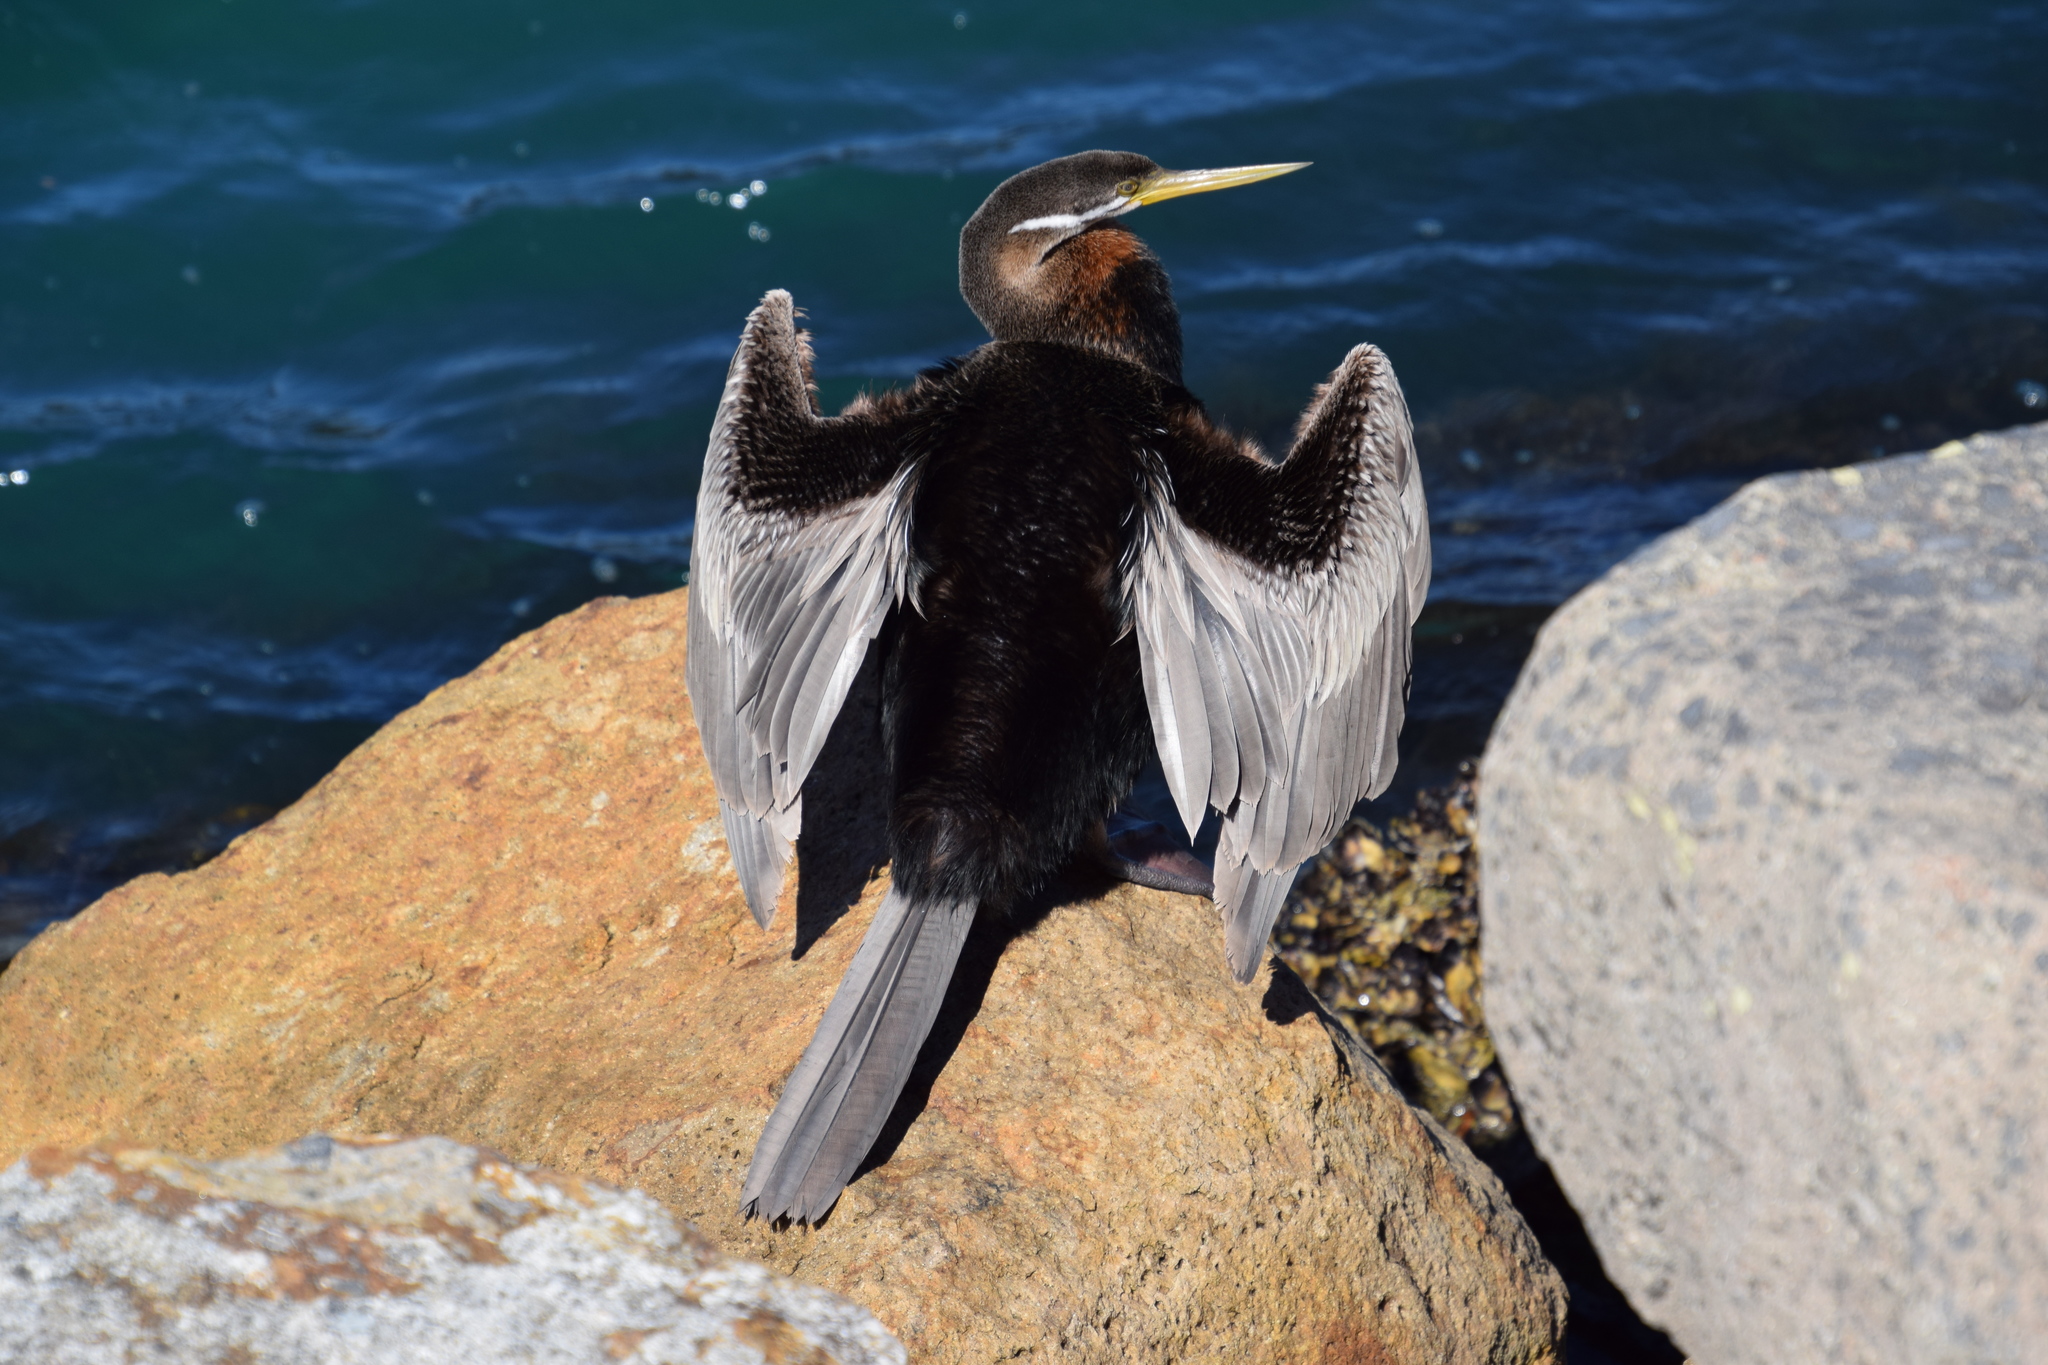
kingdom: Animalia
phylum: Chordata
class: Aves
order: Suliformes
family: Anhingidae
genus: Anhinga
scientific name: Anhinga novaehollandiae
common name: Australasian darter
